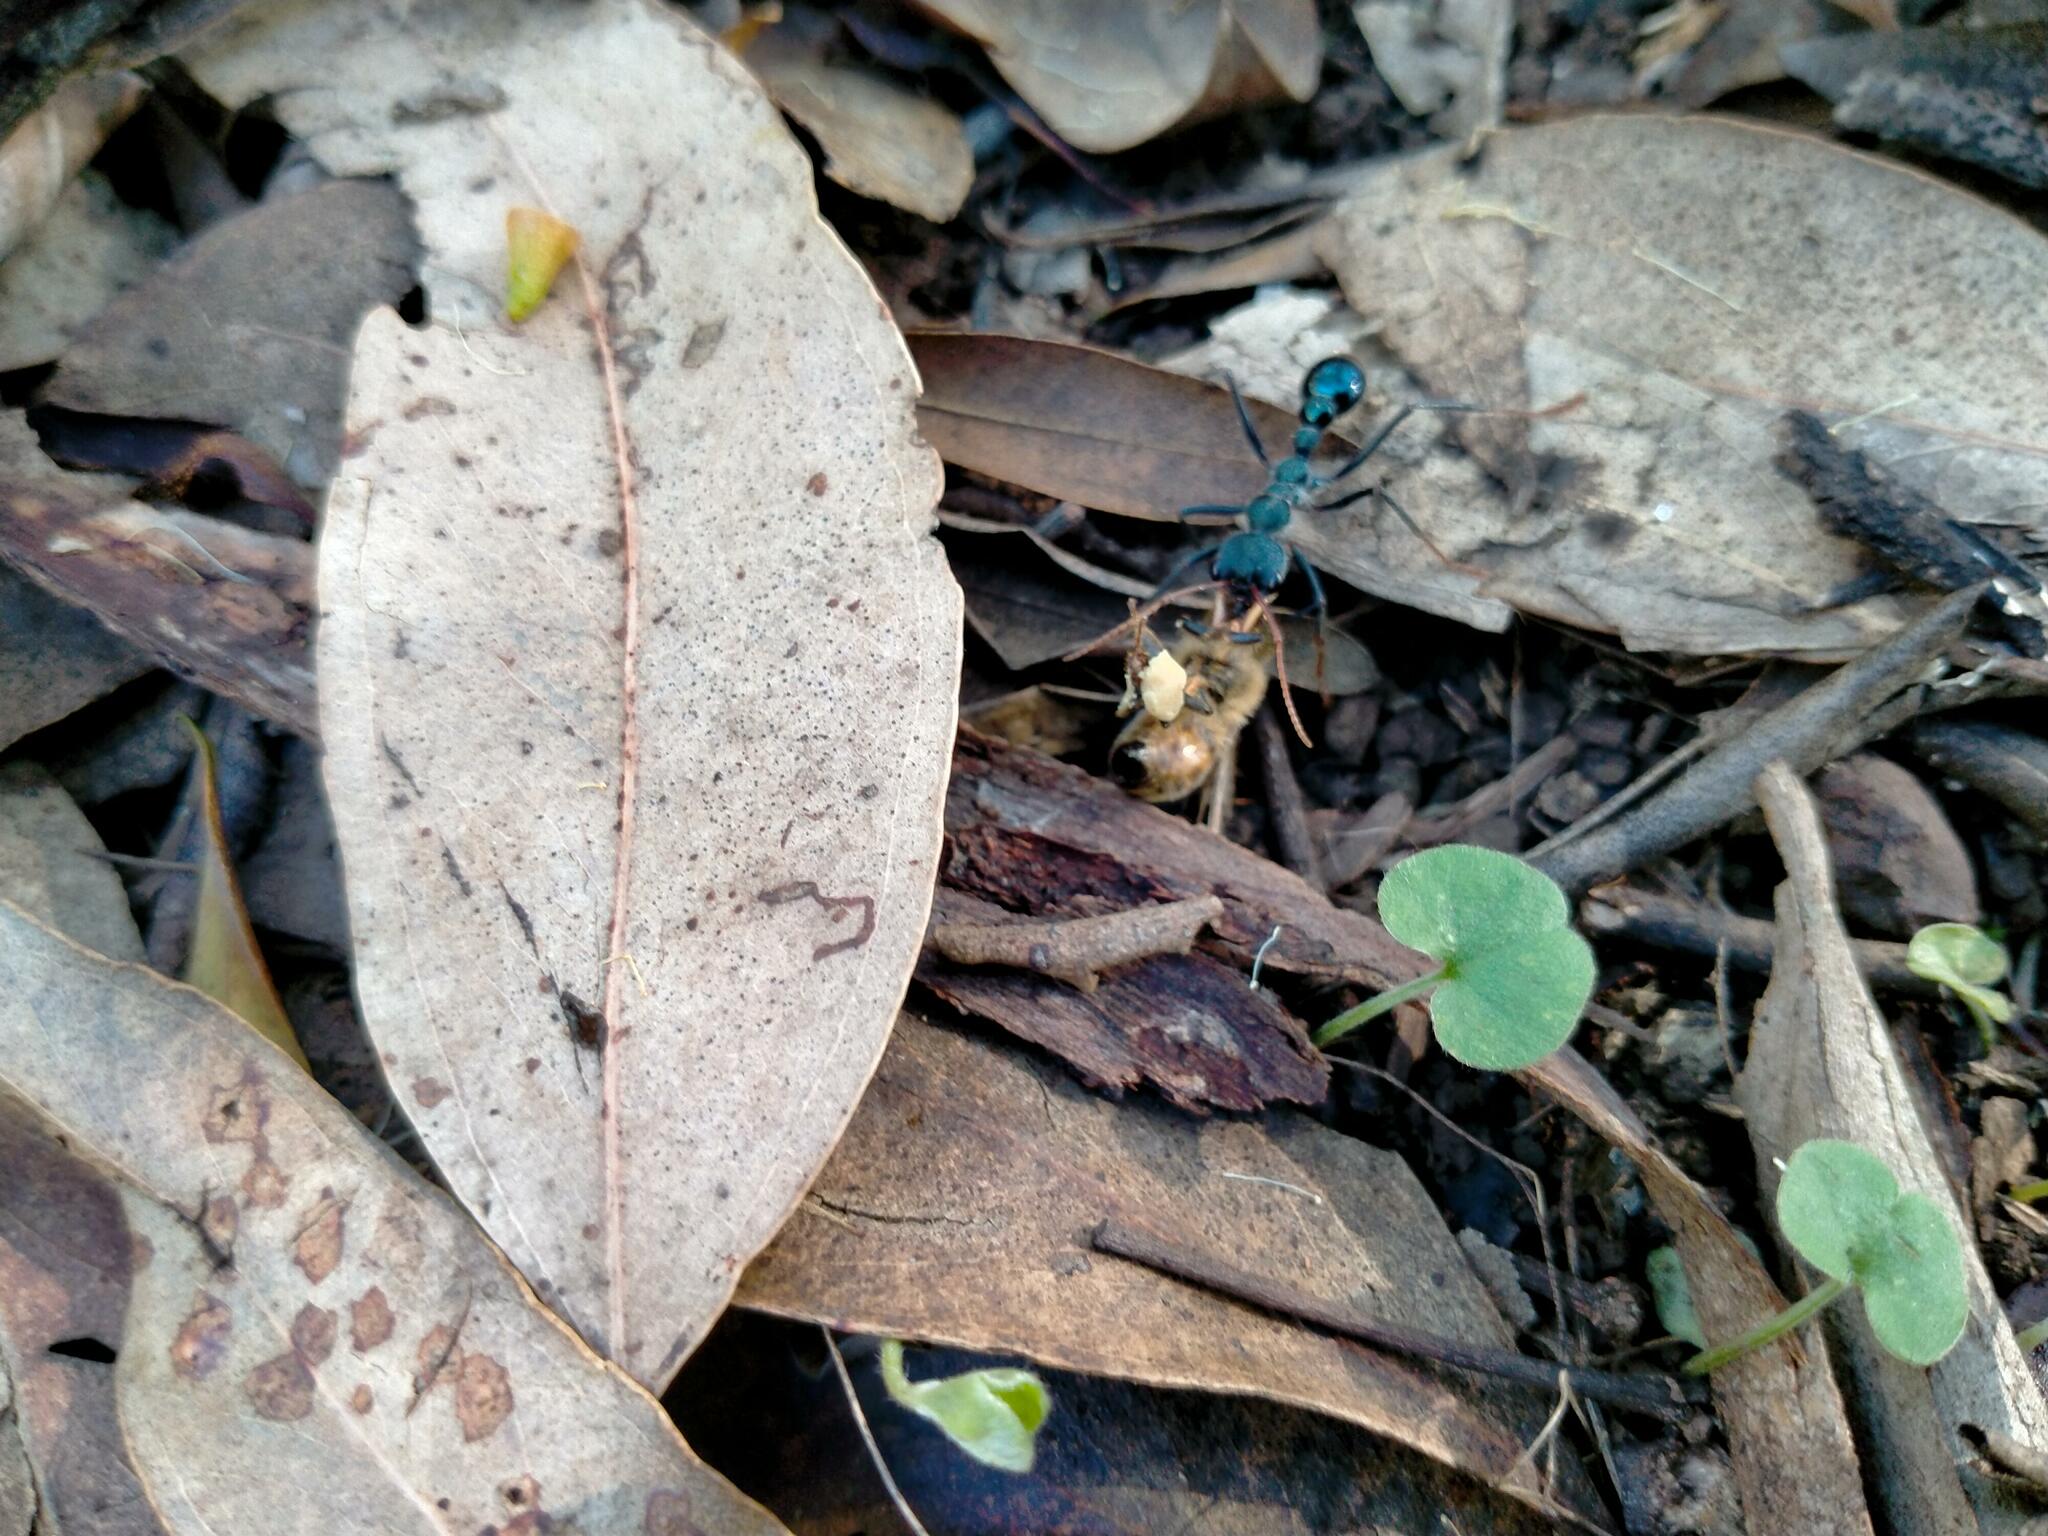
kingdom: Animalia
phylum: Arthropoda
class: Insecta
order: Hymenoptera
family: Formicidae
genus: Myrmecia
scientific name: Myrmecia tarsata
